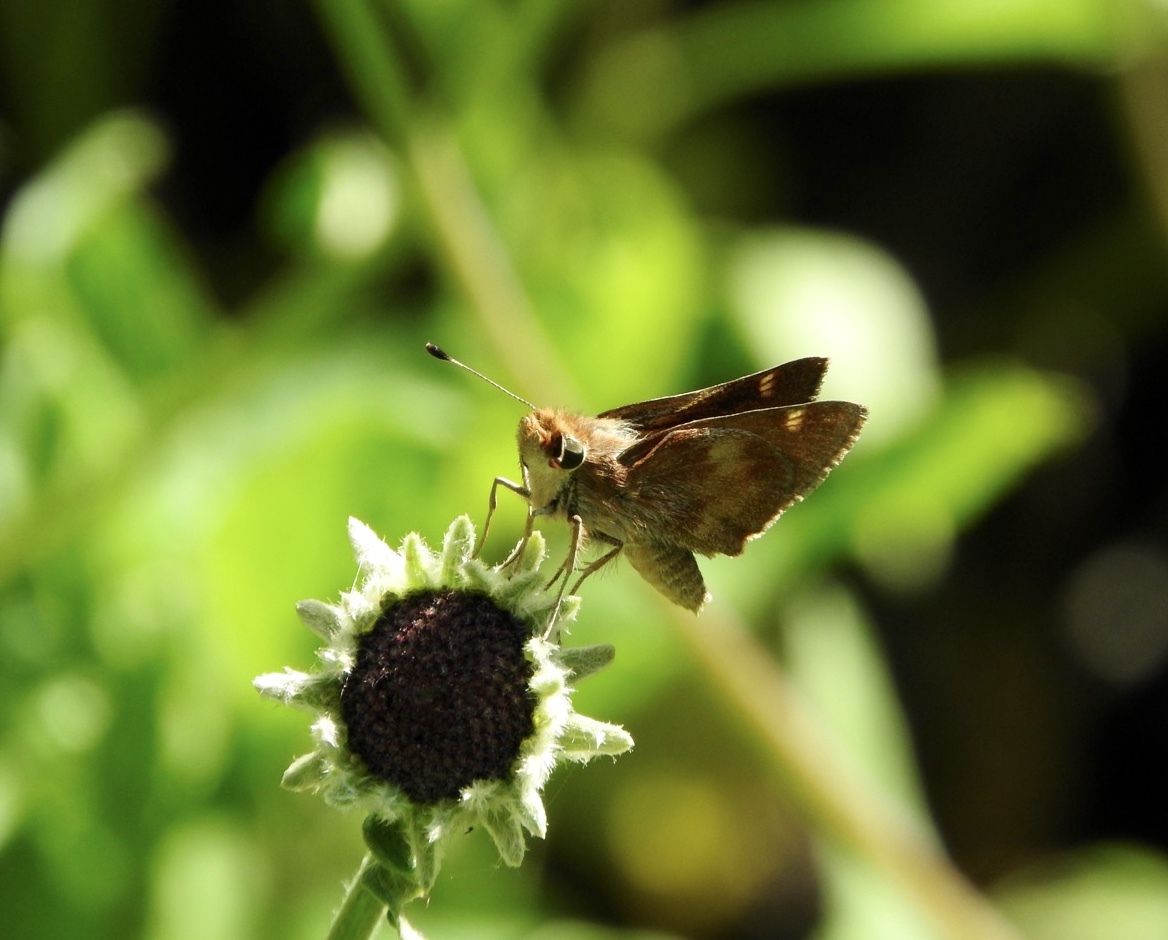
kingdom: Animalia
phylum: Arthropoda
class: Insecta
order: Lepidoptera
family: Hesperiidae
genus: Lon
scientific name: Lon melane
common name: Umber skipper
